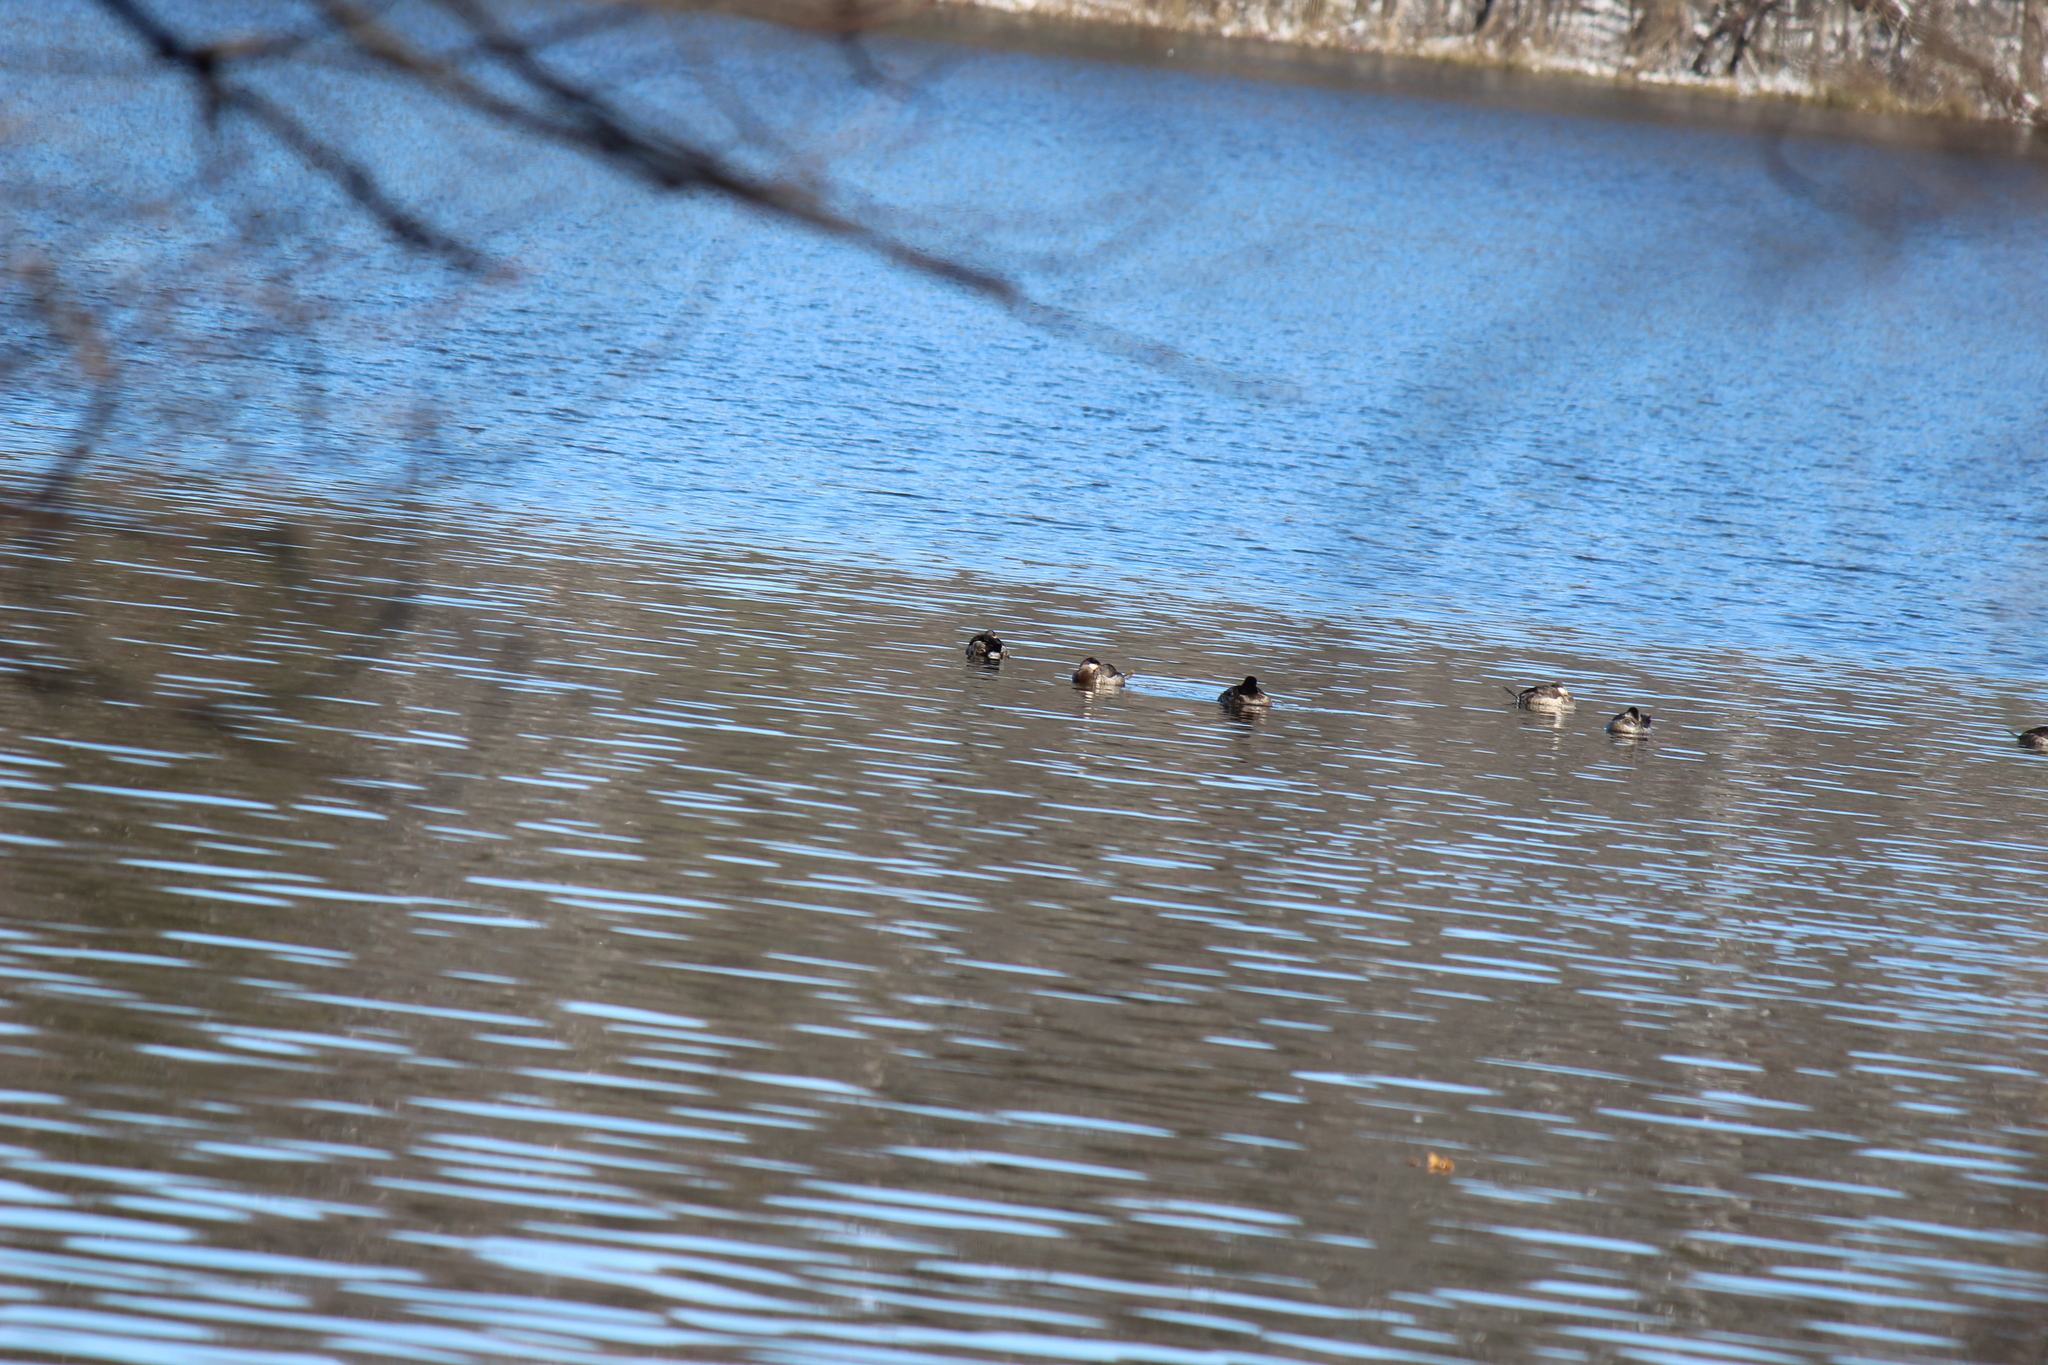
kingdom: Animalia
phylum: Chordata
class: Aves
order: Anseriformes
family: Anatidae
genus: Oxyura
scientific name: Oxyura jamaicensis
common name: Ruddy duck
